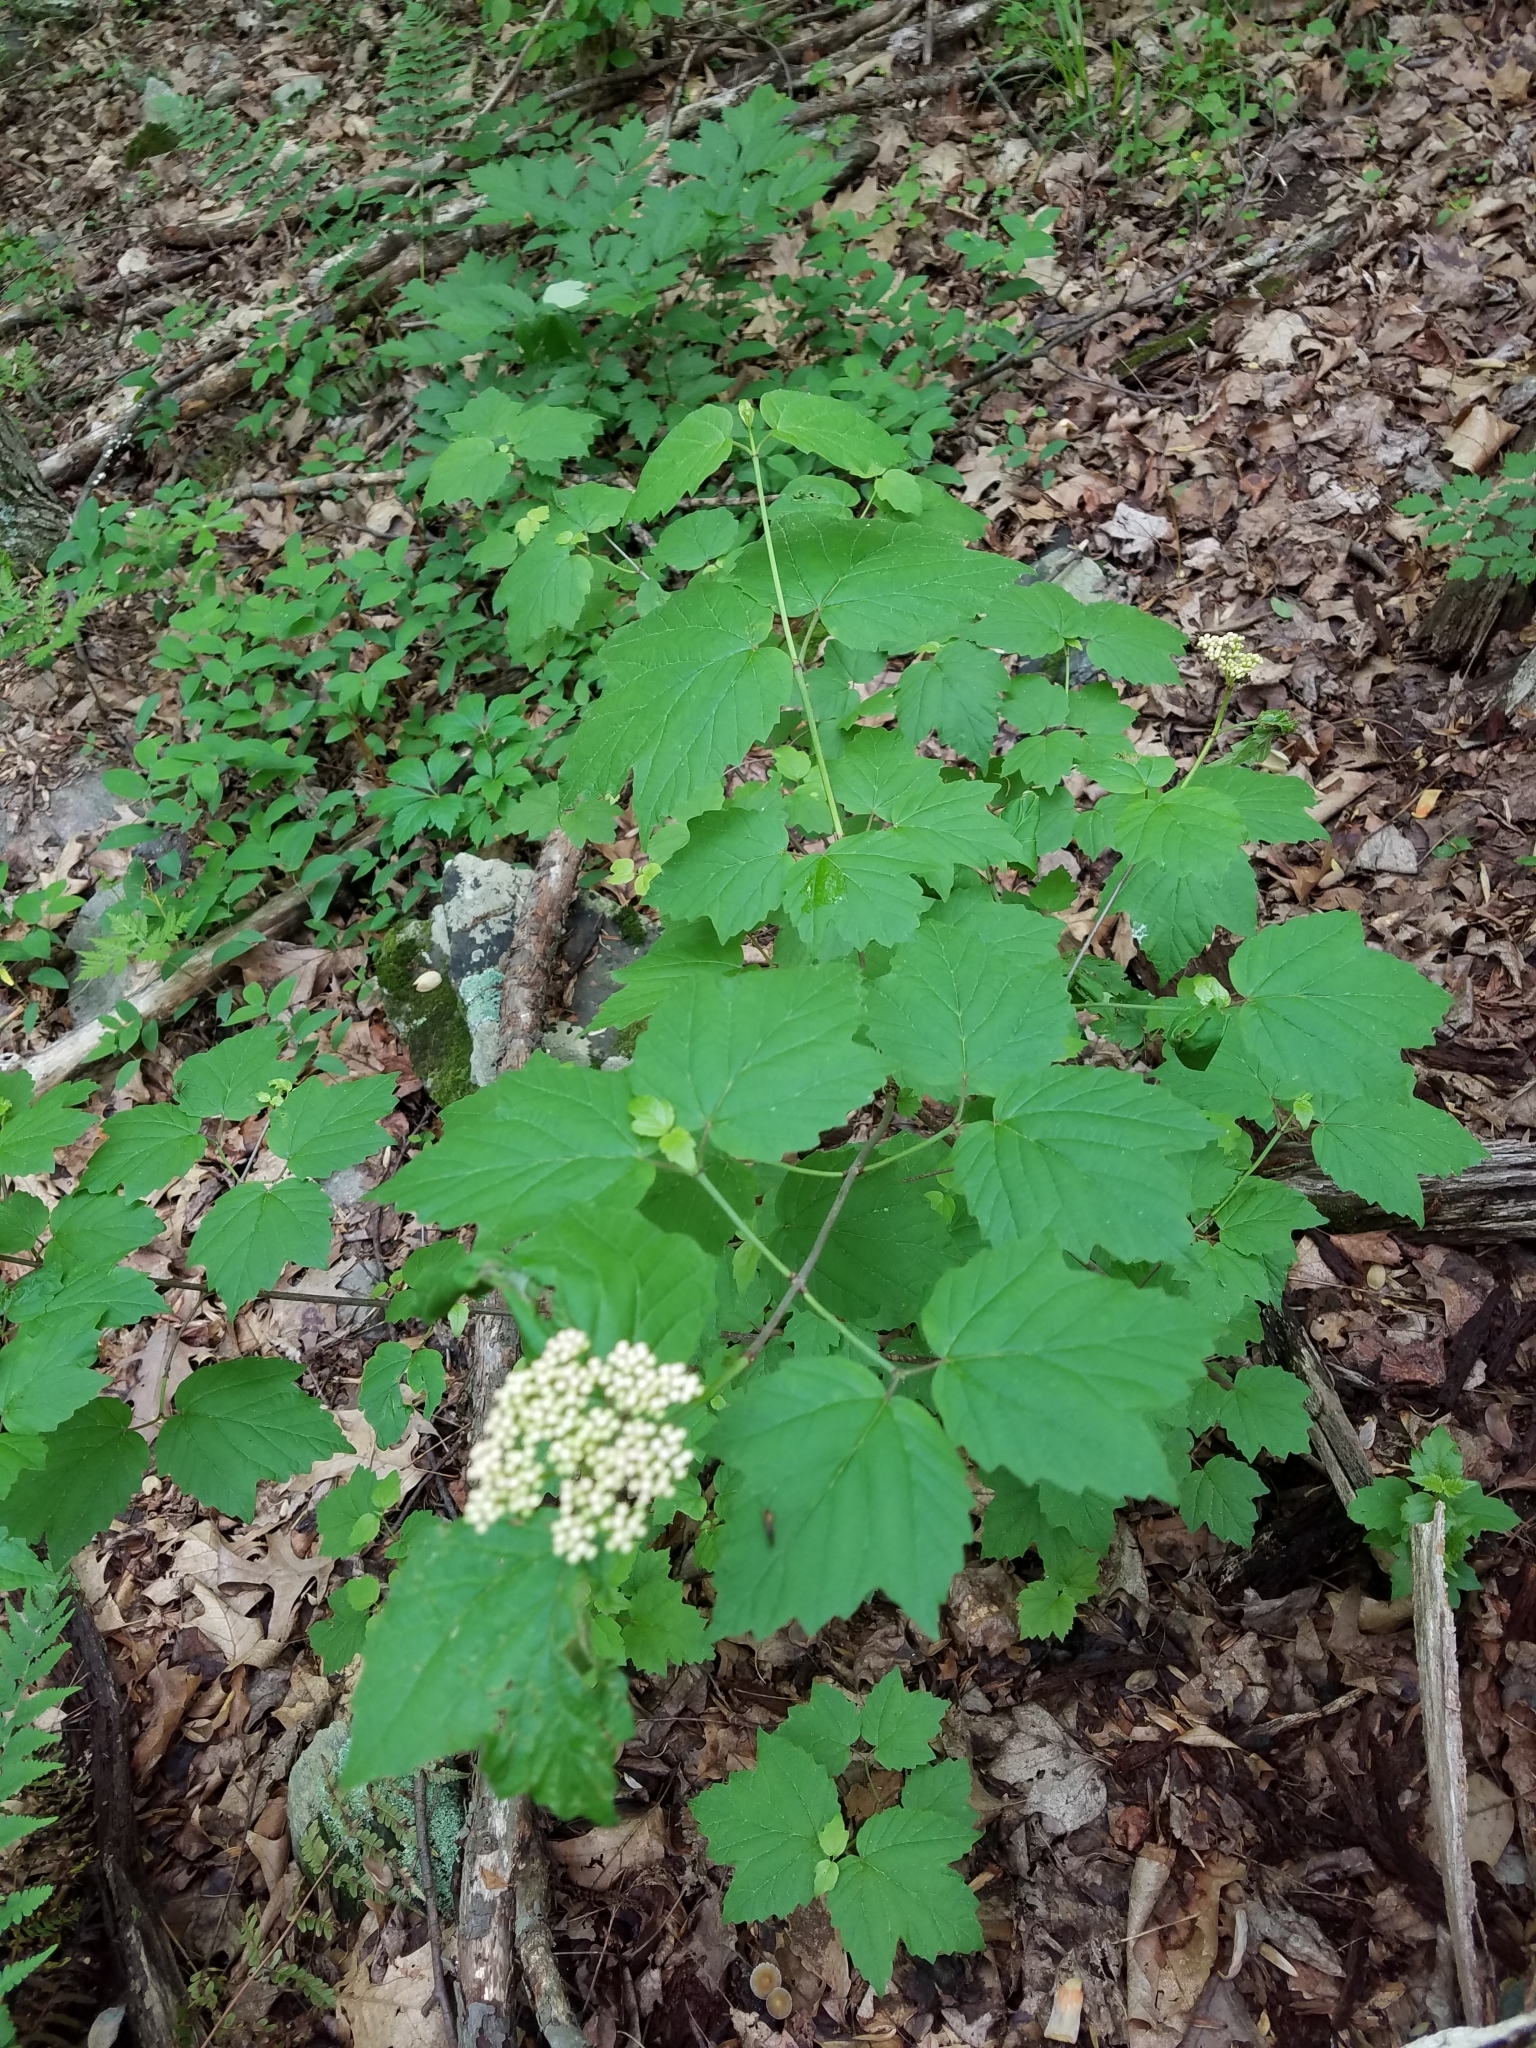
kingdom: Plantae
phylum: Tracheophyta
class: Magnoliopsida
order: Dipsacales
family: Viburnaceae
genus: Viburnum
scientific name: Viburnum acerifolium
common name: Dockmackie
